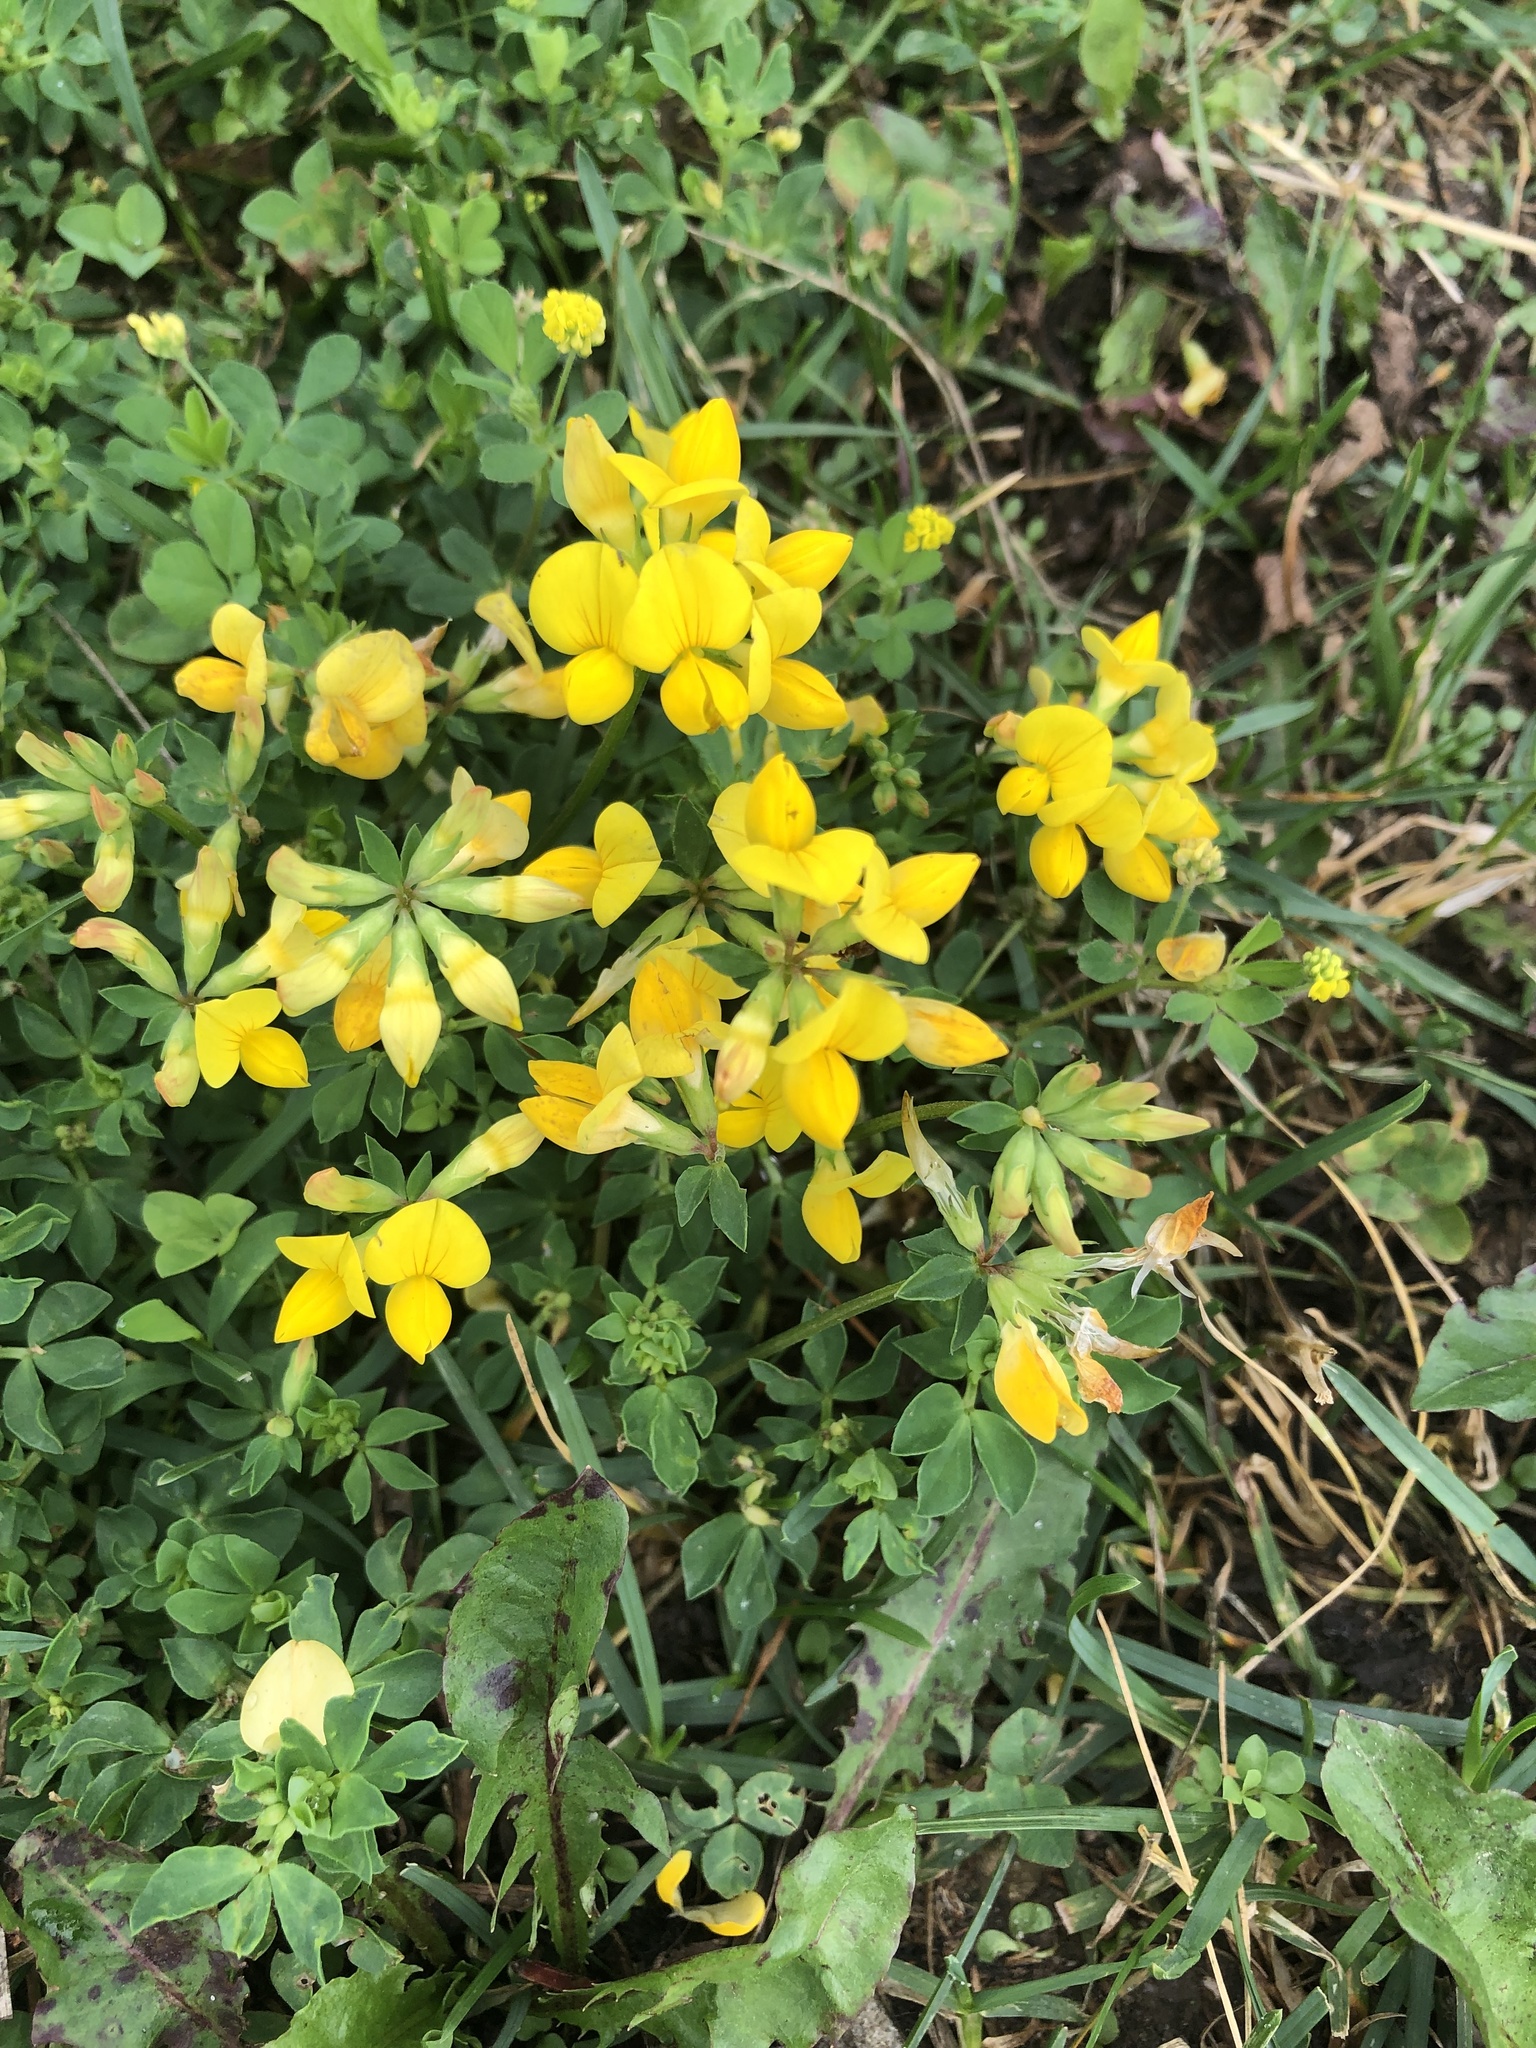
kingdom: Plantae
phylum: Tracheophyta
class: Magnoliopsida
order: Fabales
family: Fabaceae
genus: Lotus
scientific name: Lotus corniculatus
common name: Common bird's-foot-trefoil
